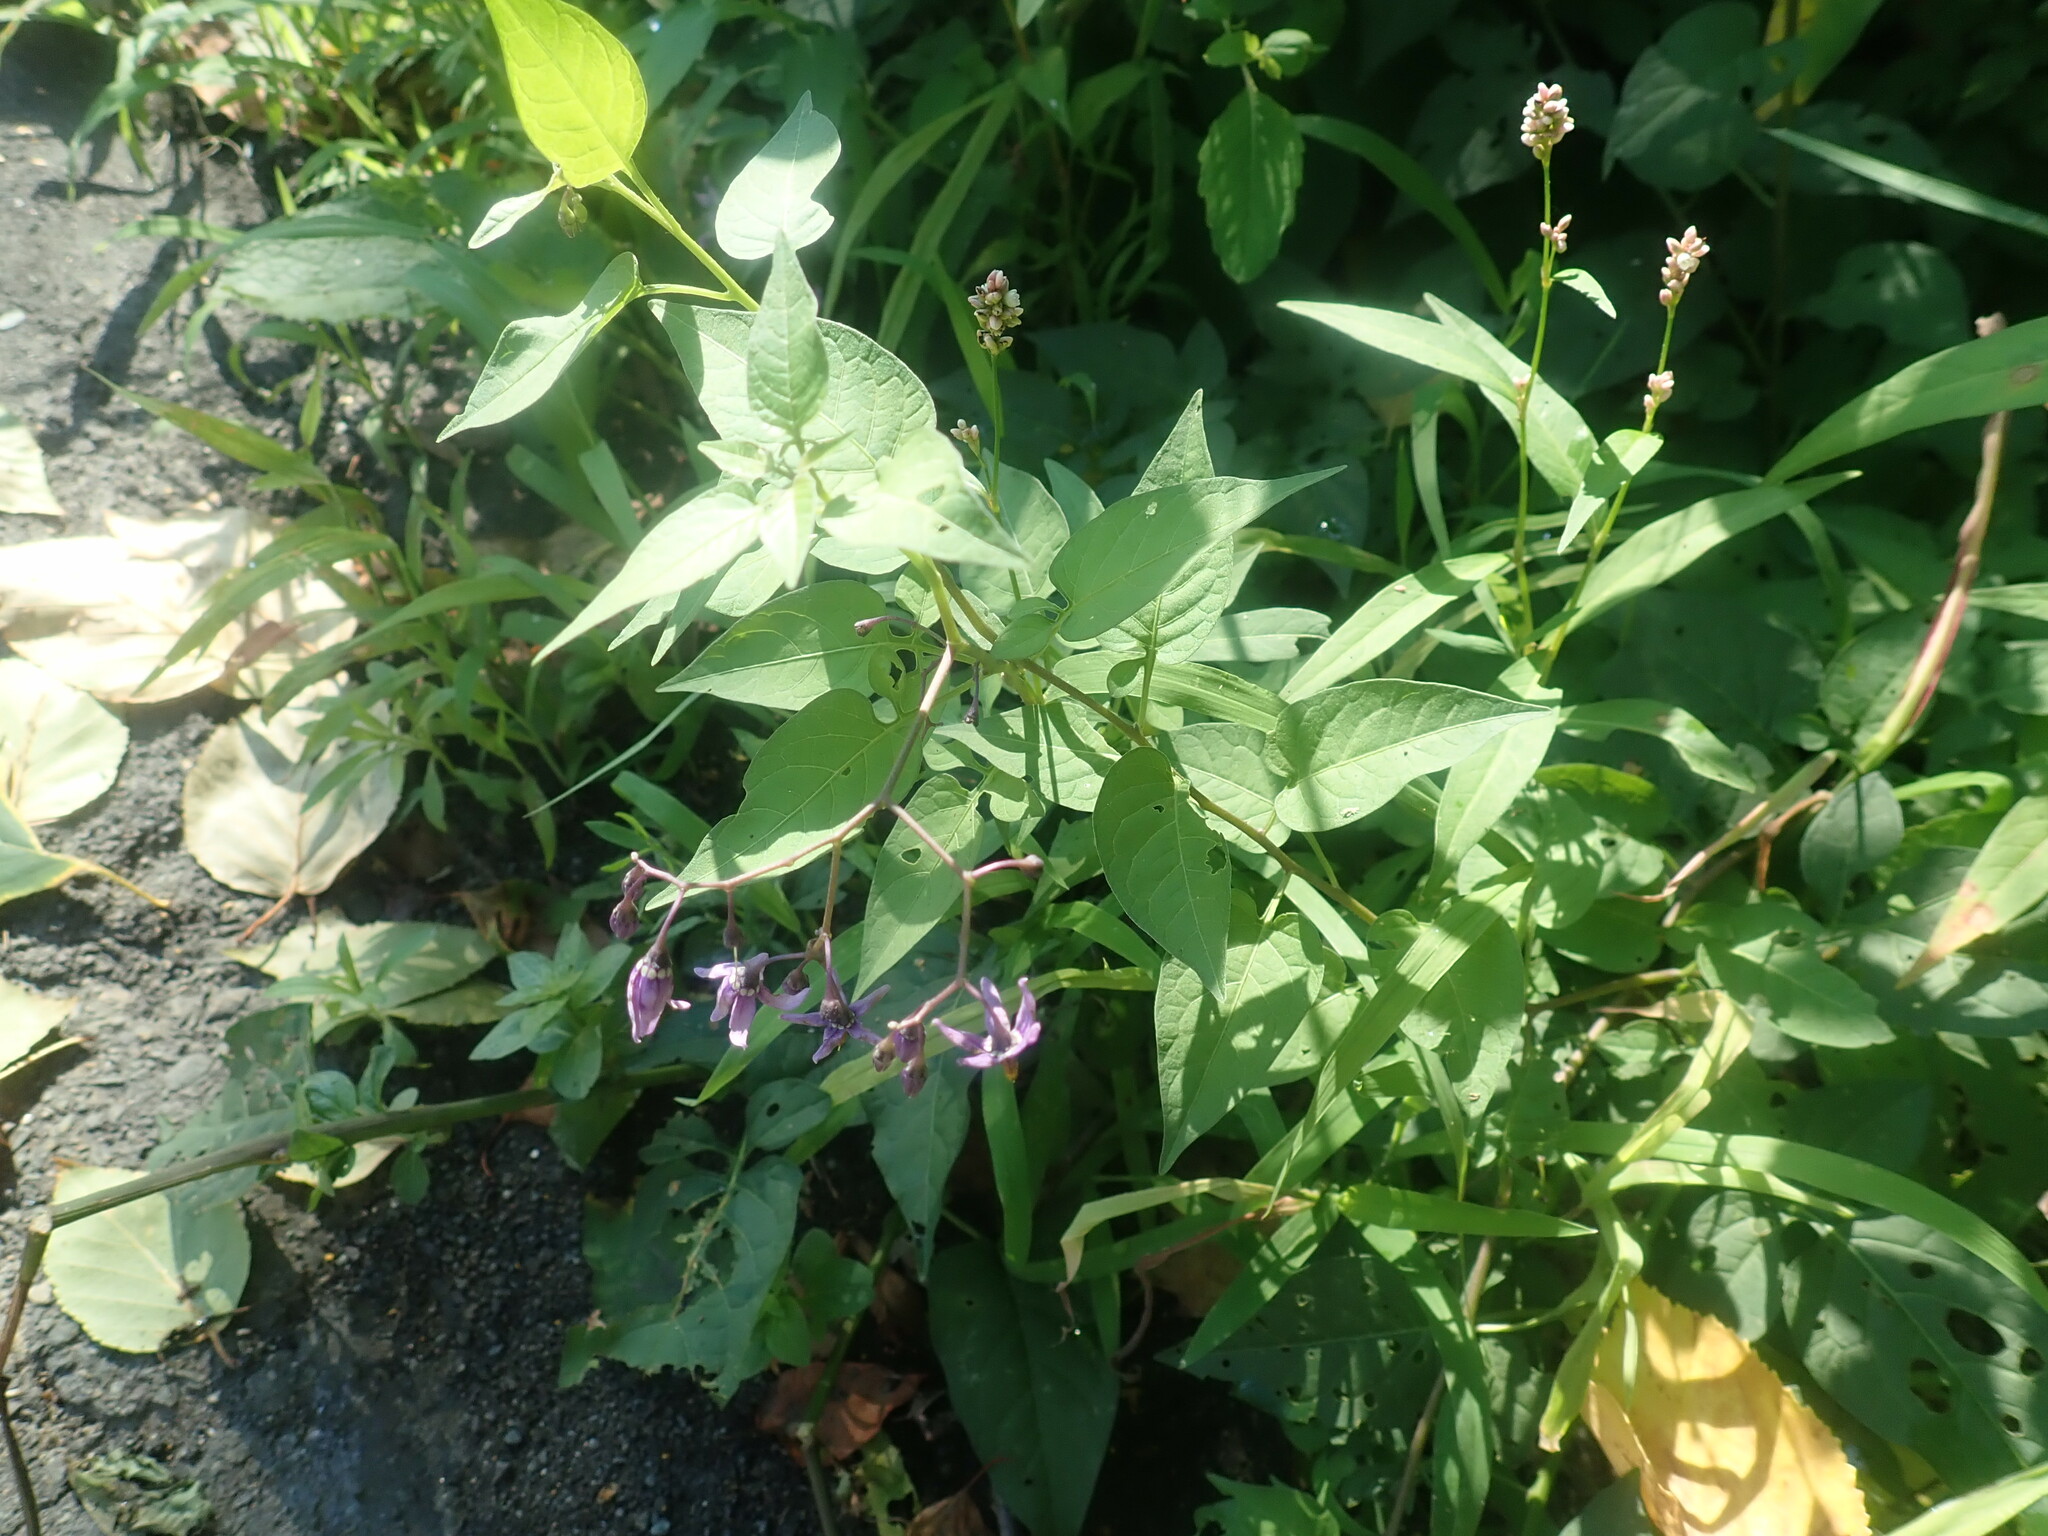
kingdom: Plantae
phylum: Tracheophyta
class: Magnoliopsida
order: Solanales
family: Solanaceae
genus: Solanum
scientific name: Solanum dulcamara
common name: Climbing nightshade
